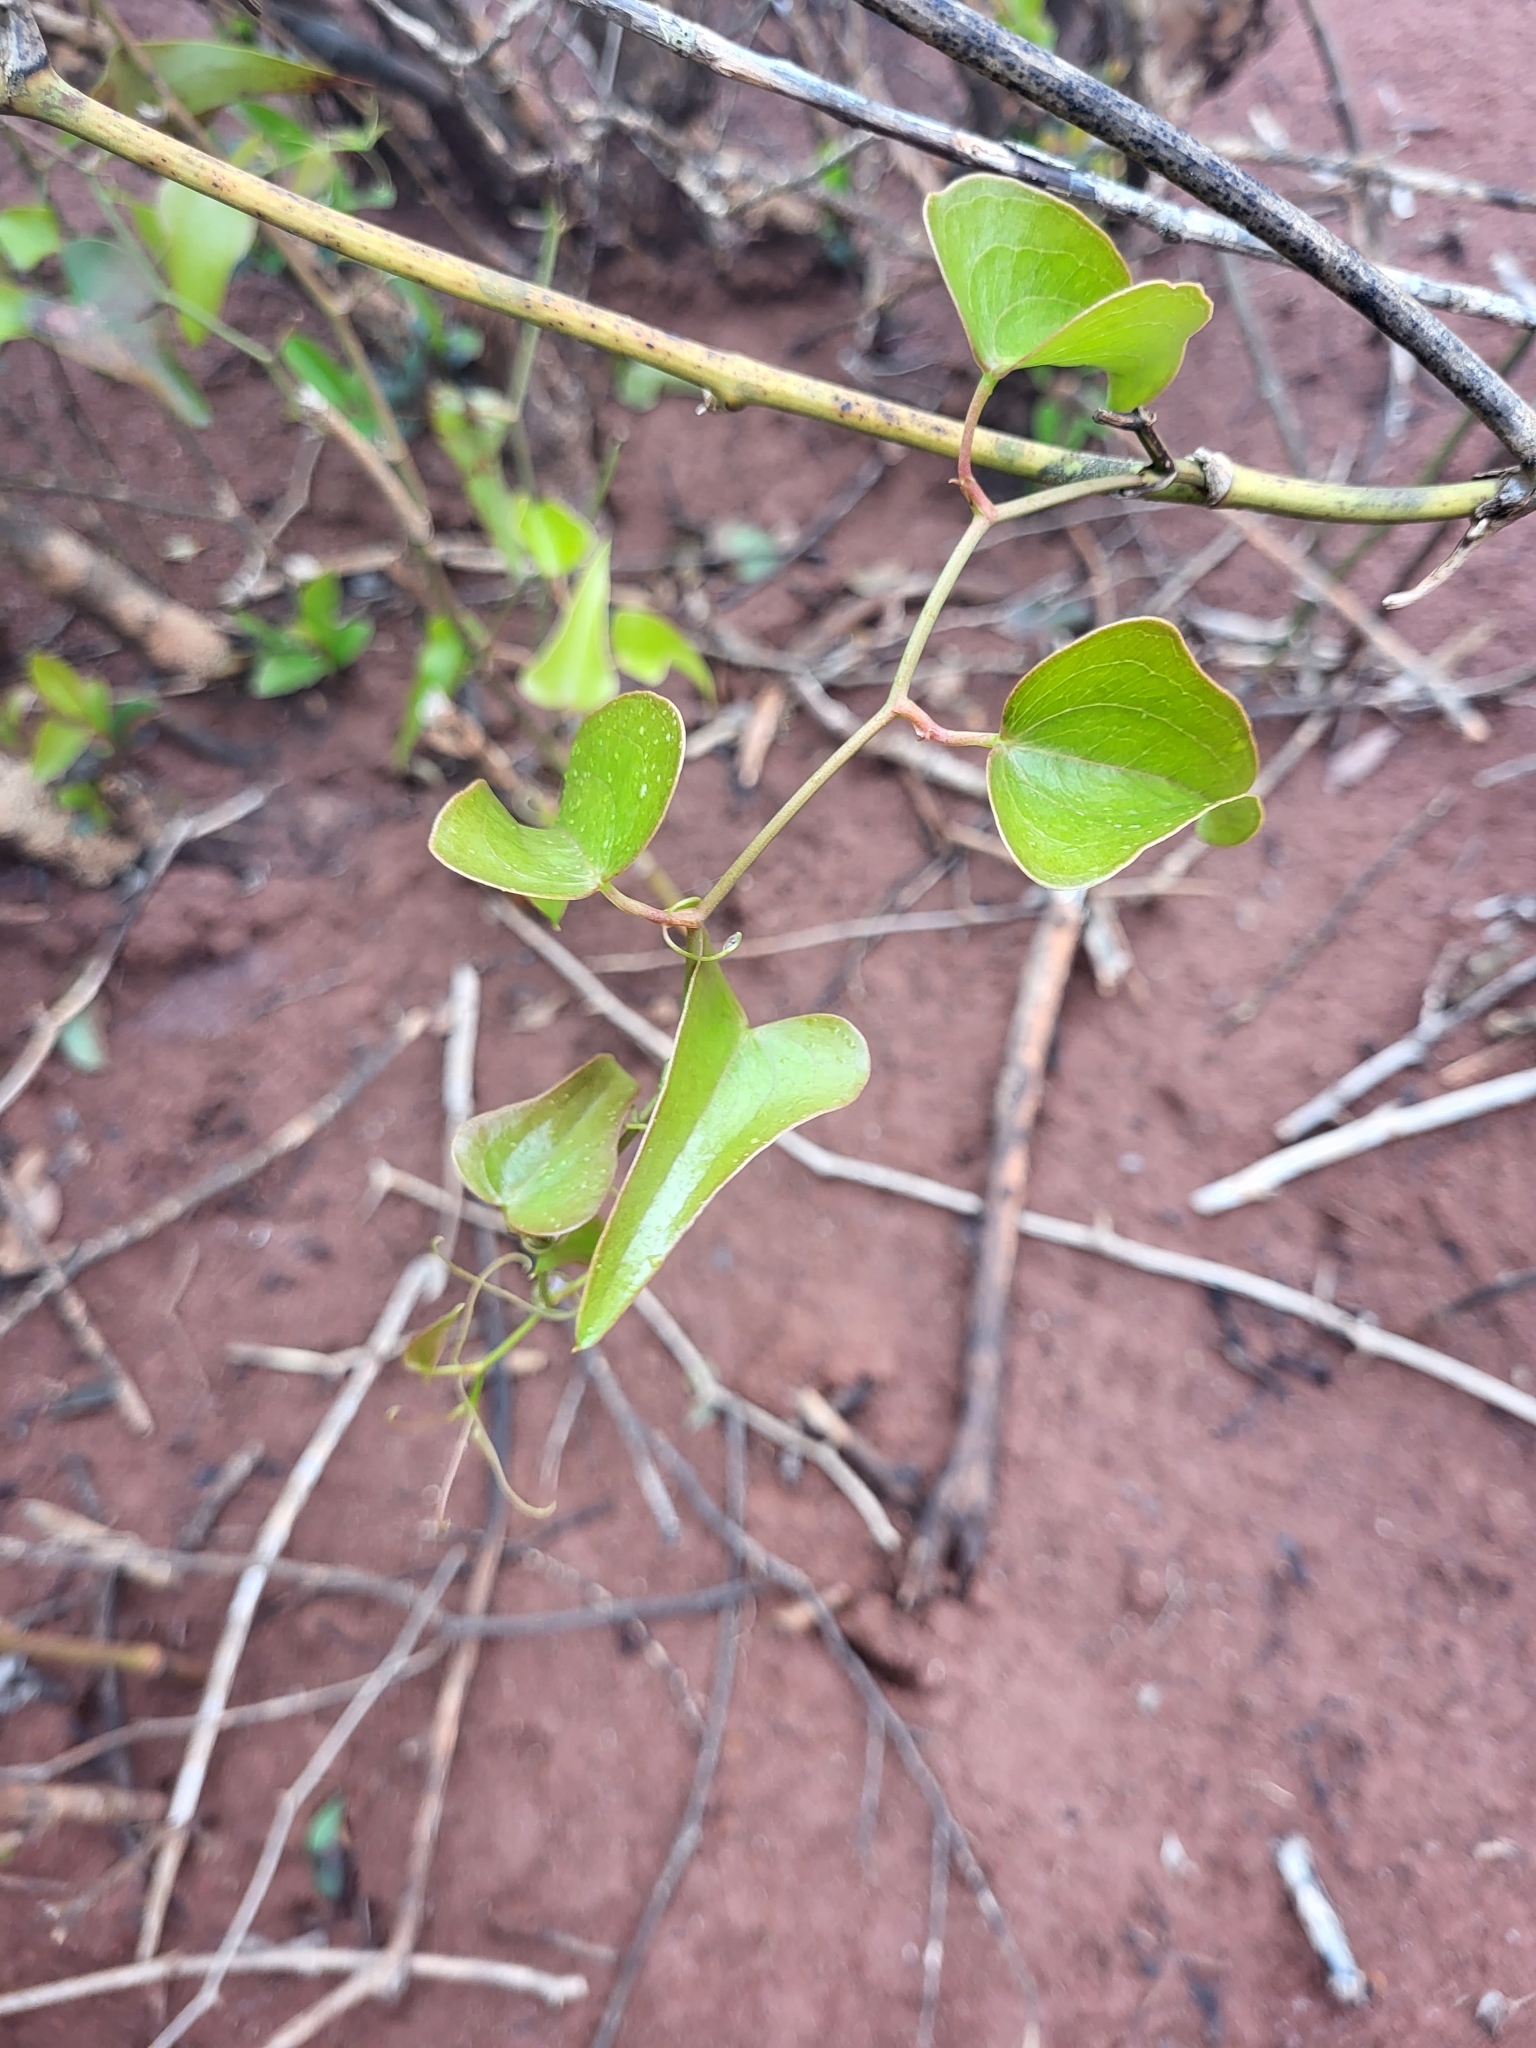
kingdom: Plantae
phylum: Tracheophyta
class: Liliopsida
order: Liliales
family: Smilacaceae
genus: Smilax
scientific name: Smilax aspera
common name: Common smilax
